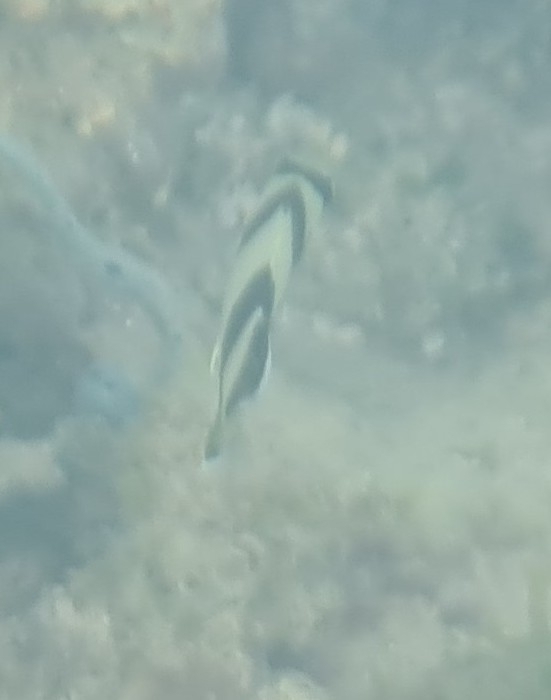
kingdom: Animalia
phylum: Chordata
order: Perciformes
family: Chaetodontidae
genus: Chaetodon
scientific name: Chaetodon striatus
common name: Banded butterflyfish
